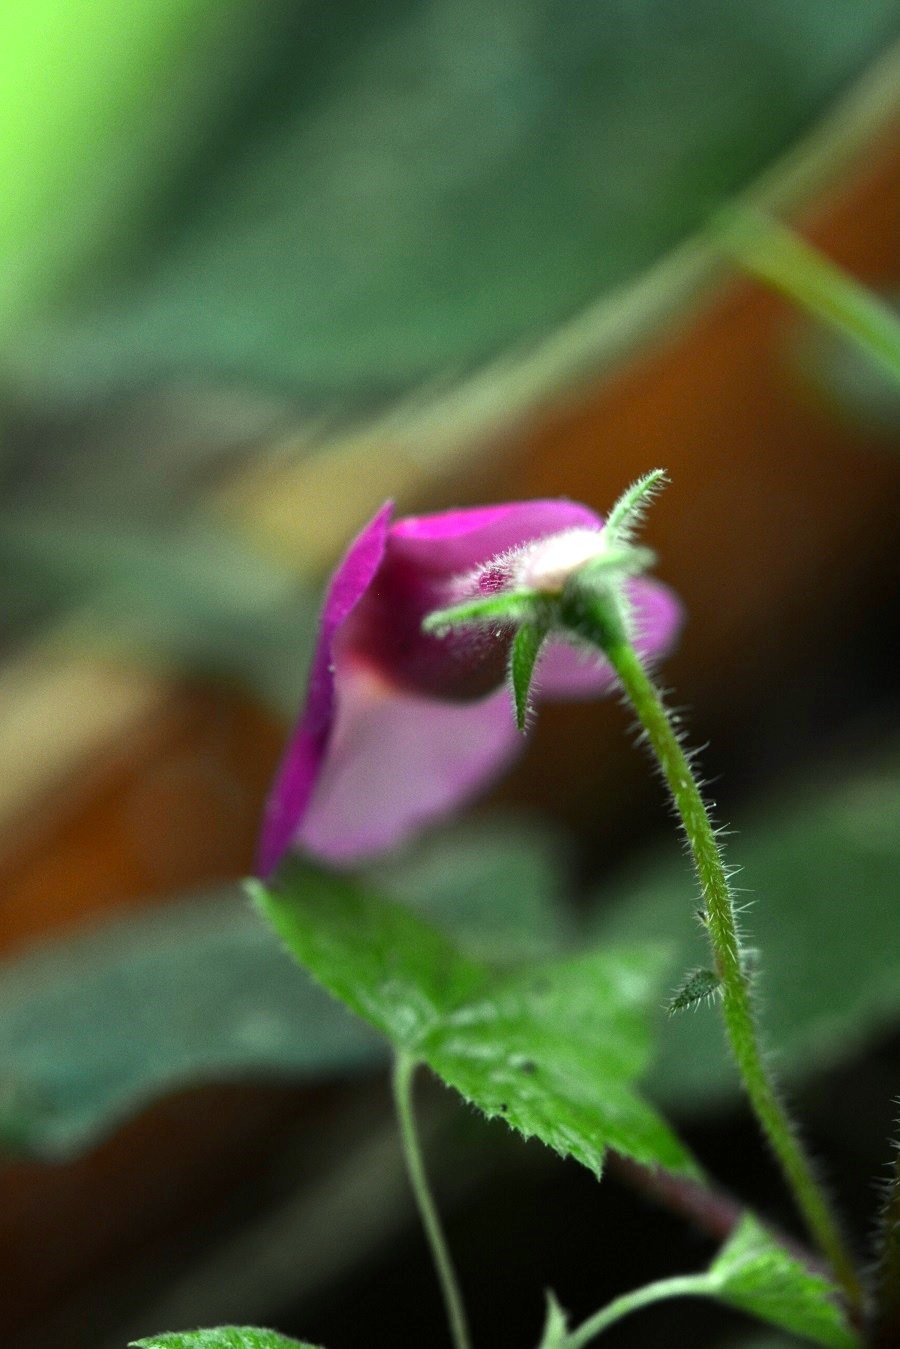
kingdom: Plantae
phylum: Tracheophyta
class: Magnoliopsida
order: Lamiales
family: Gesneriaceae
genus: Achimenes
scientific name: Achimenes skinneri
